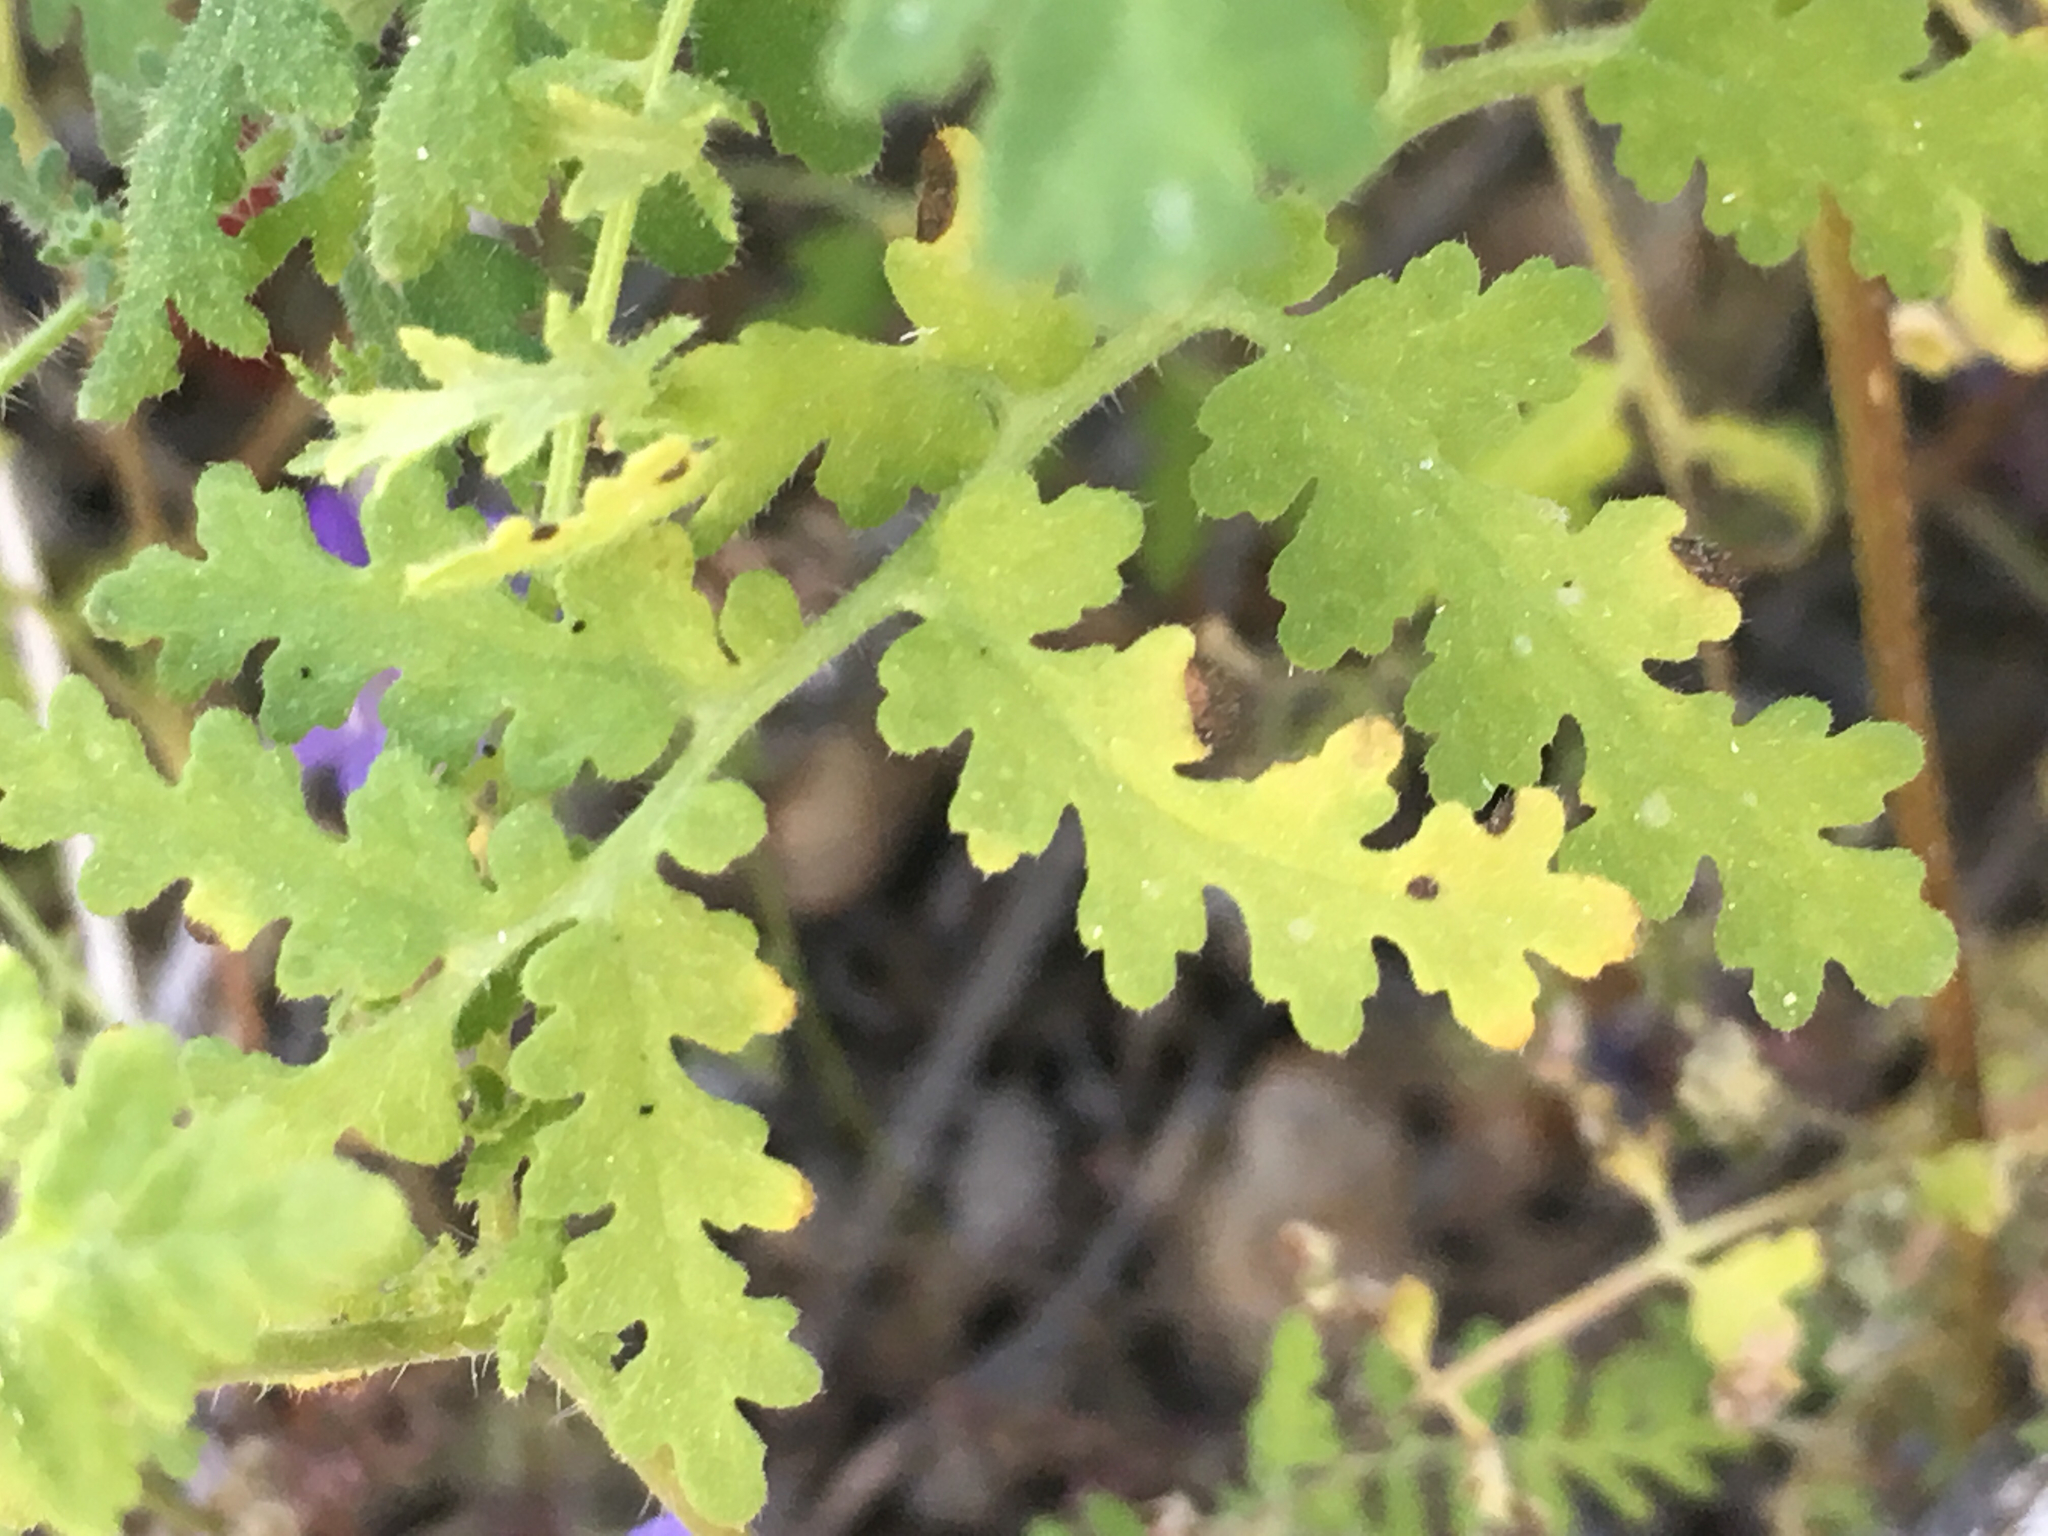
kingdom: Plantae
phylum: Tracheophyta
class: Magnoliopsida
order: Boraginales
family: Hydrophyllaceae
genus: Phacelia
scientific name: Phacelia distans
